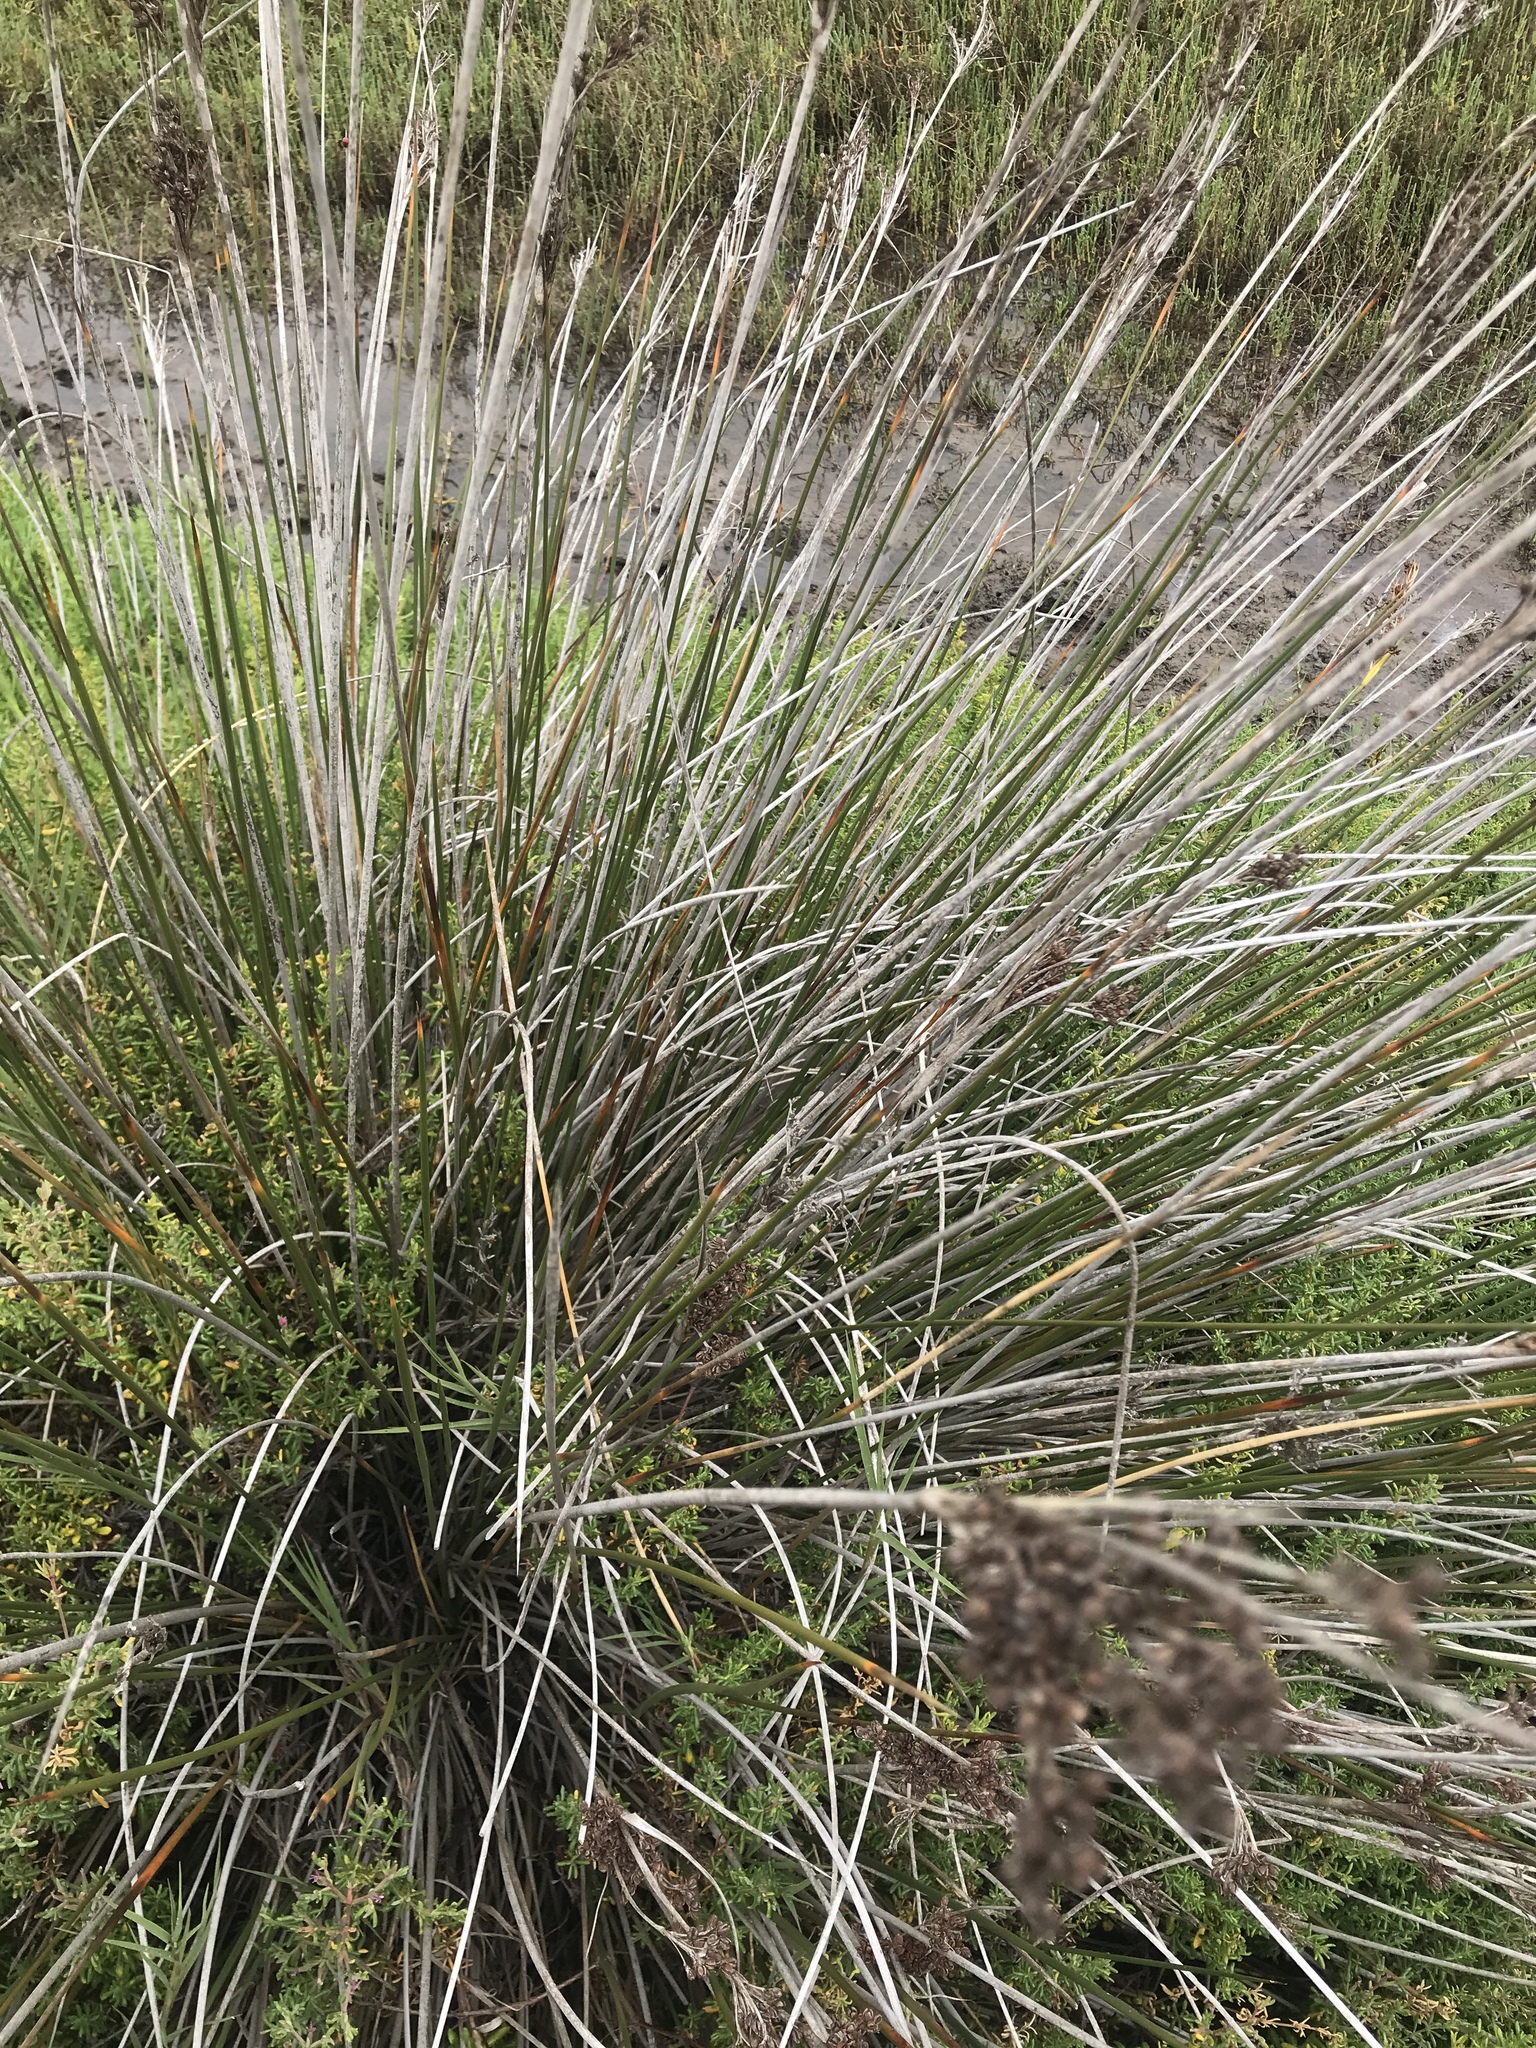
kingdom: Plantae
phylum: Tracheophyta
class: Liliopsida
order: Poales
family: Juncaceae
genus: Juncus
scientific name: Juncus acutus
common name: Sharp rush
